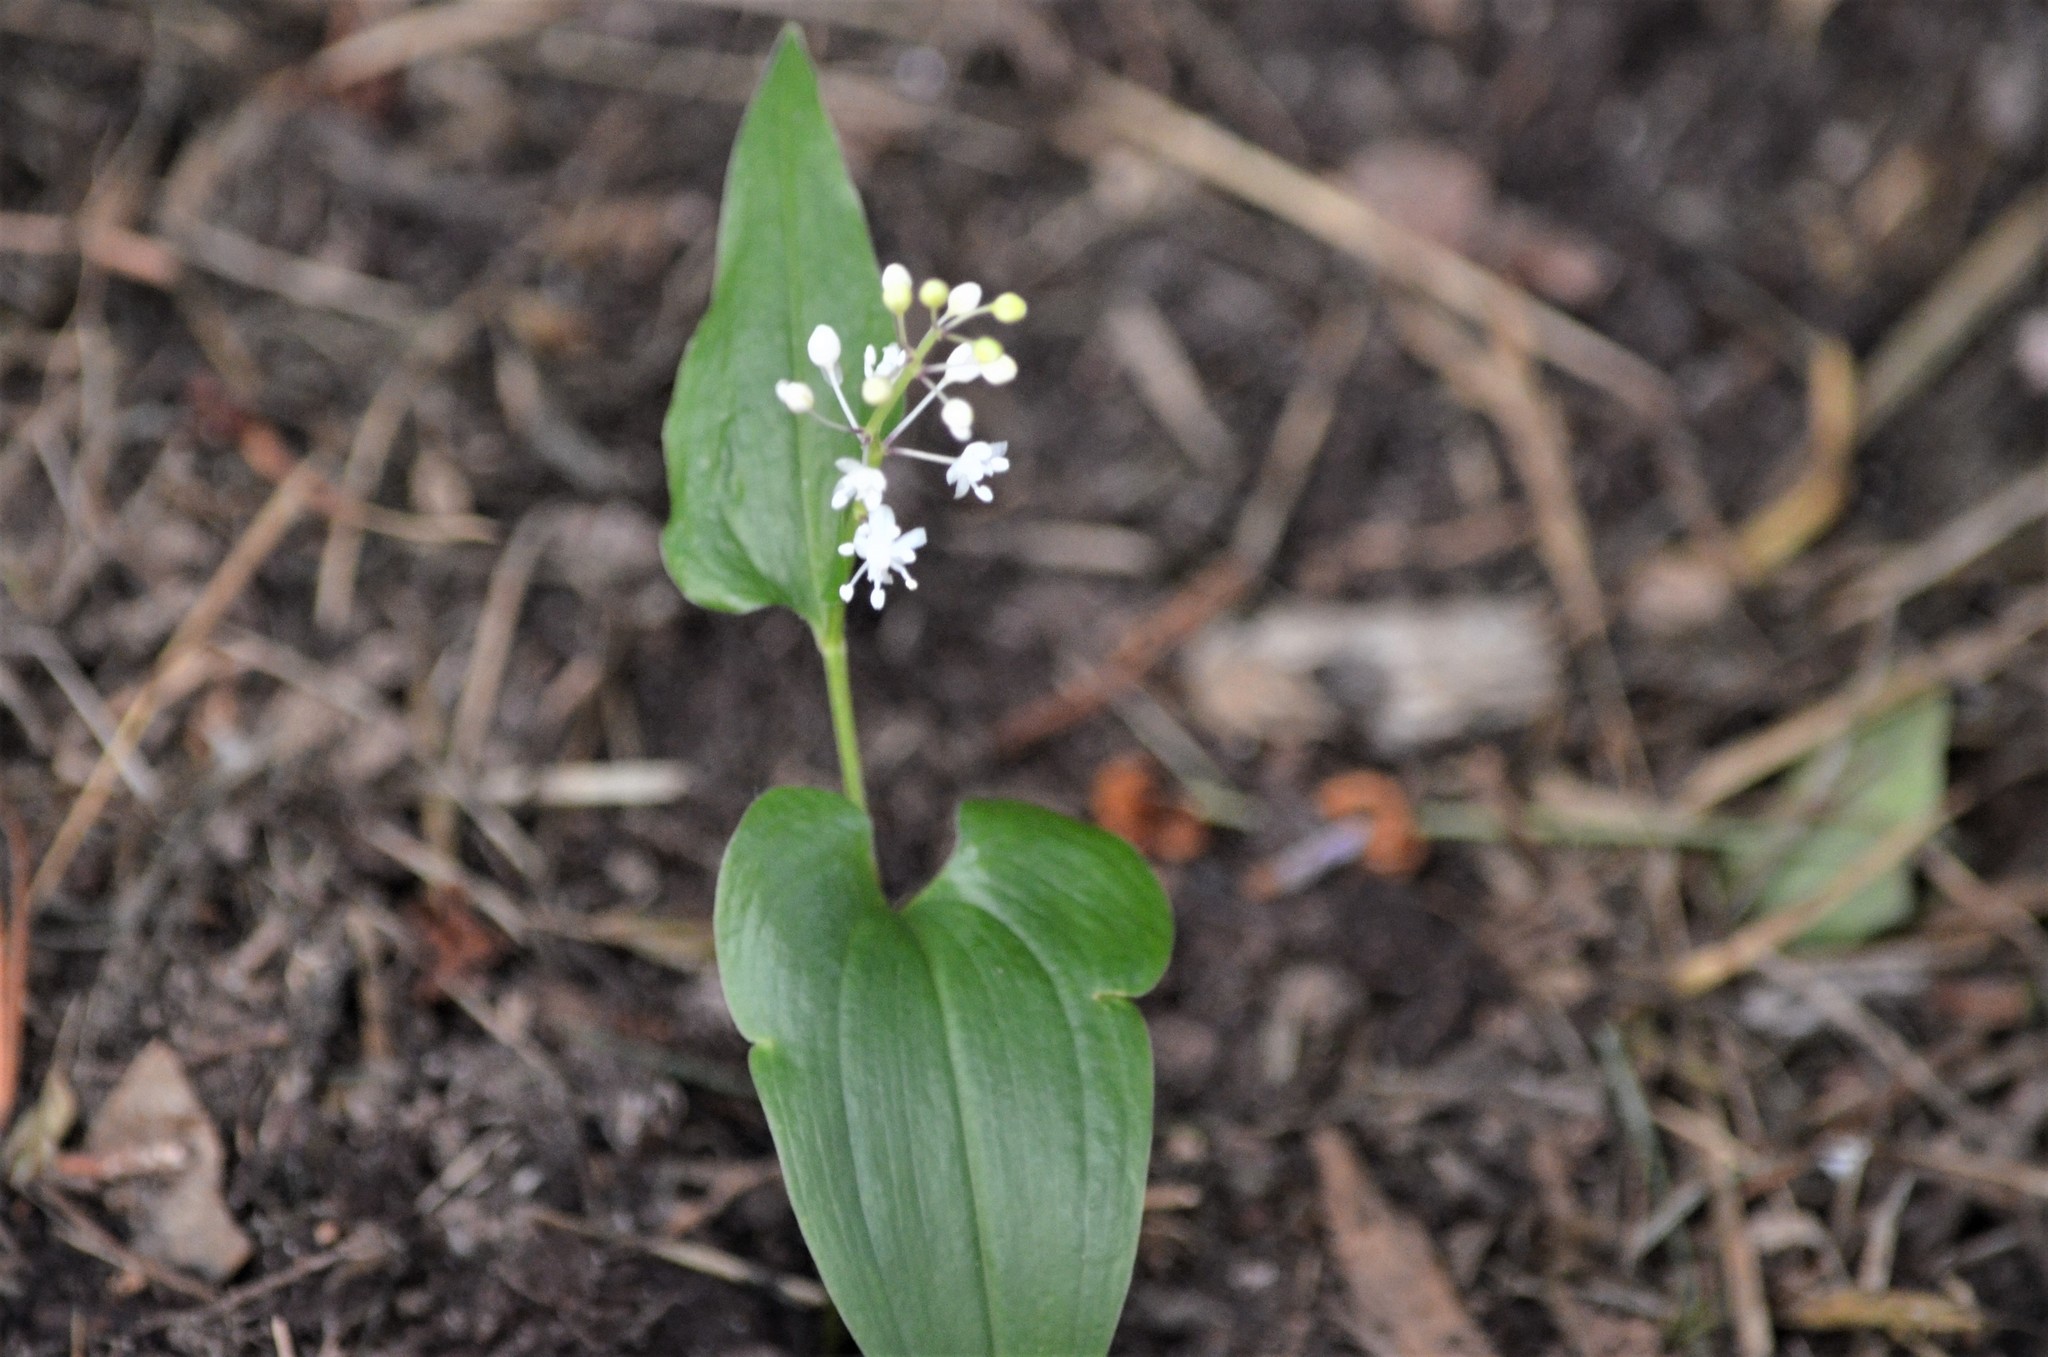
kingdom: Plantae
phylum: Tracheophyta
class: Liliopsida
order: Asparagales
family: Asparagaceae
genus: Maianthemum
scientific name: Maianthemum bifolium
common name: May lily
